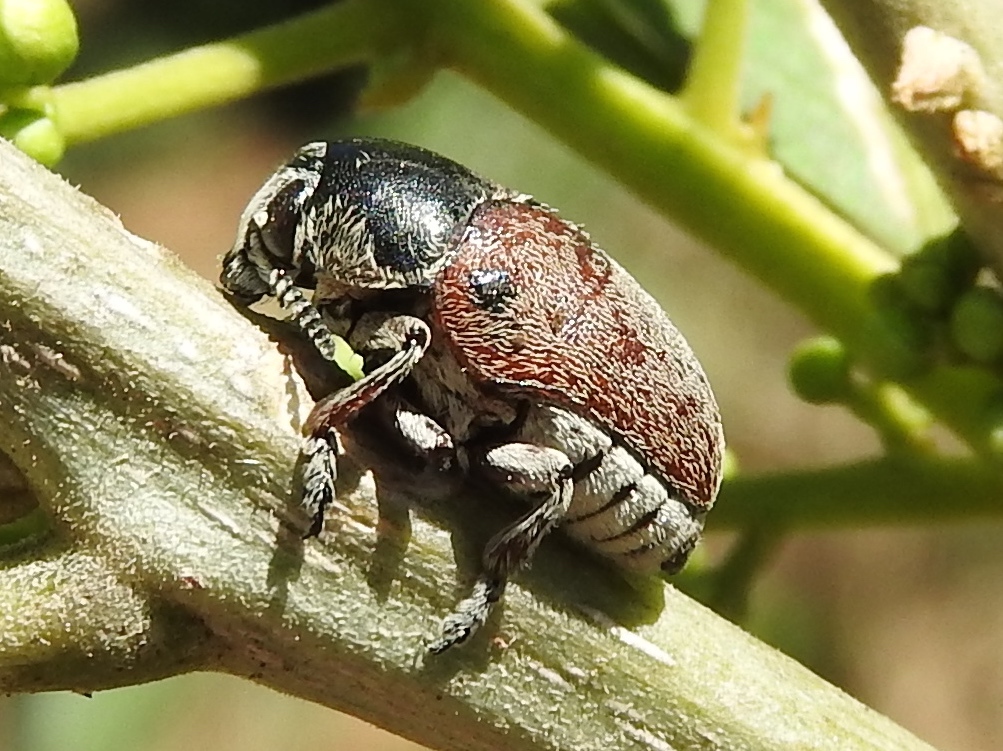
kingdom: Animalia
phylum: Arthropoda
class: Insecta
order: Coleoptera
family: Chrysomelidae
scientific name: Chrysomelidae
